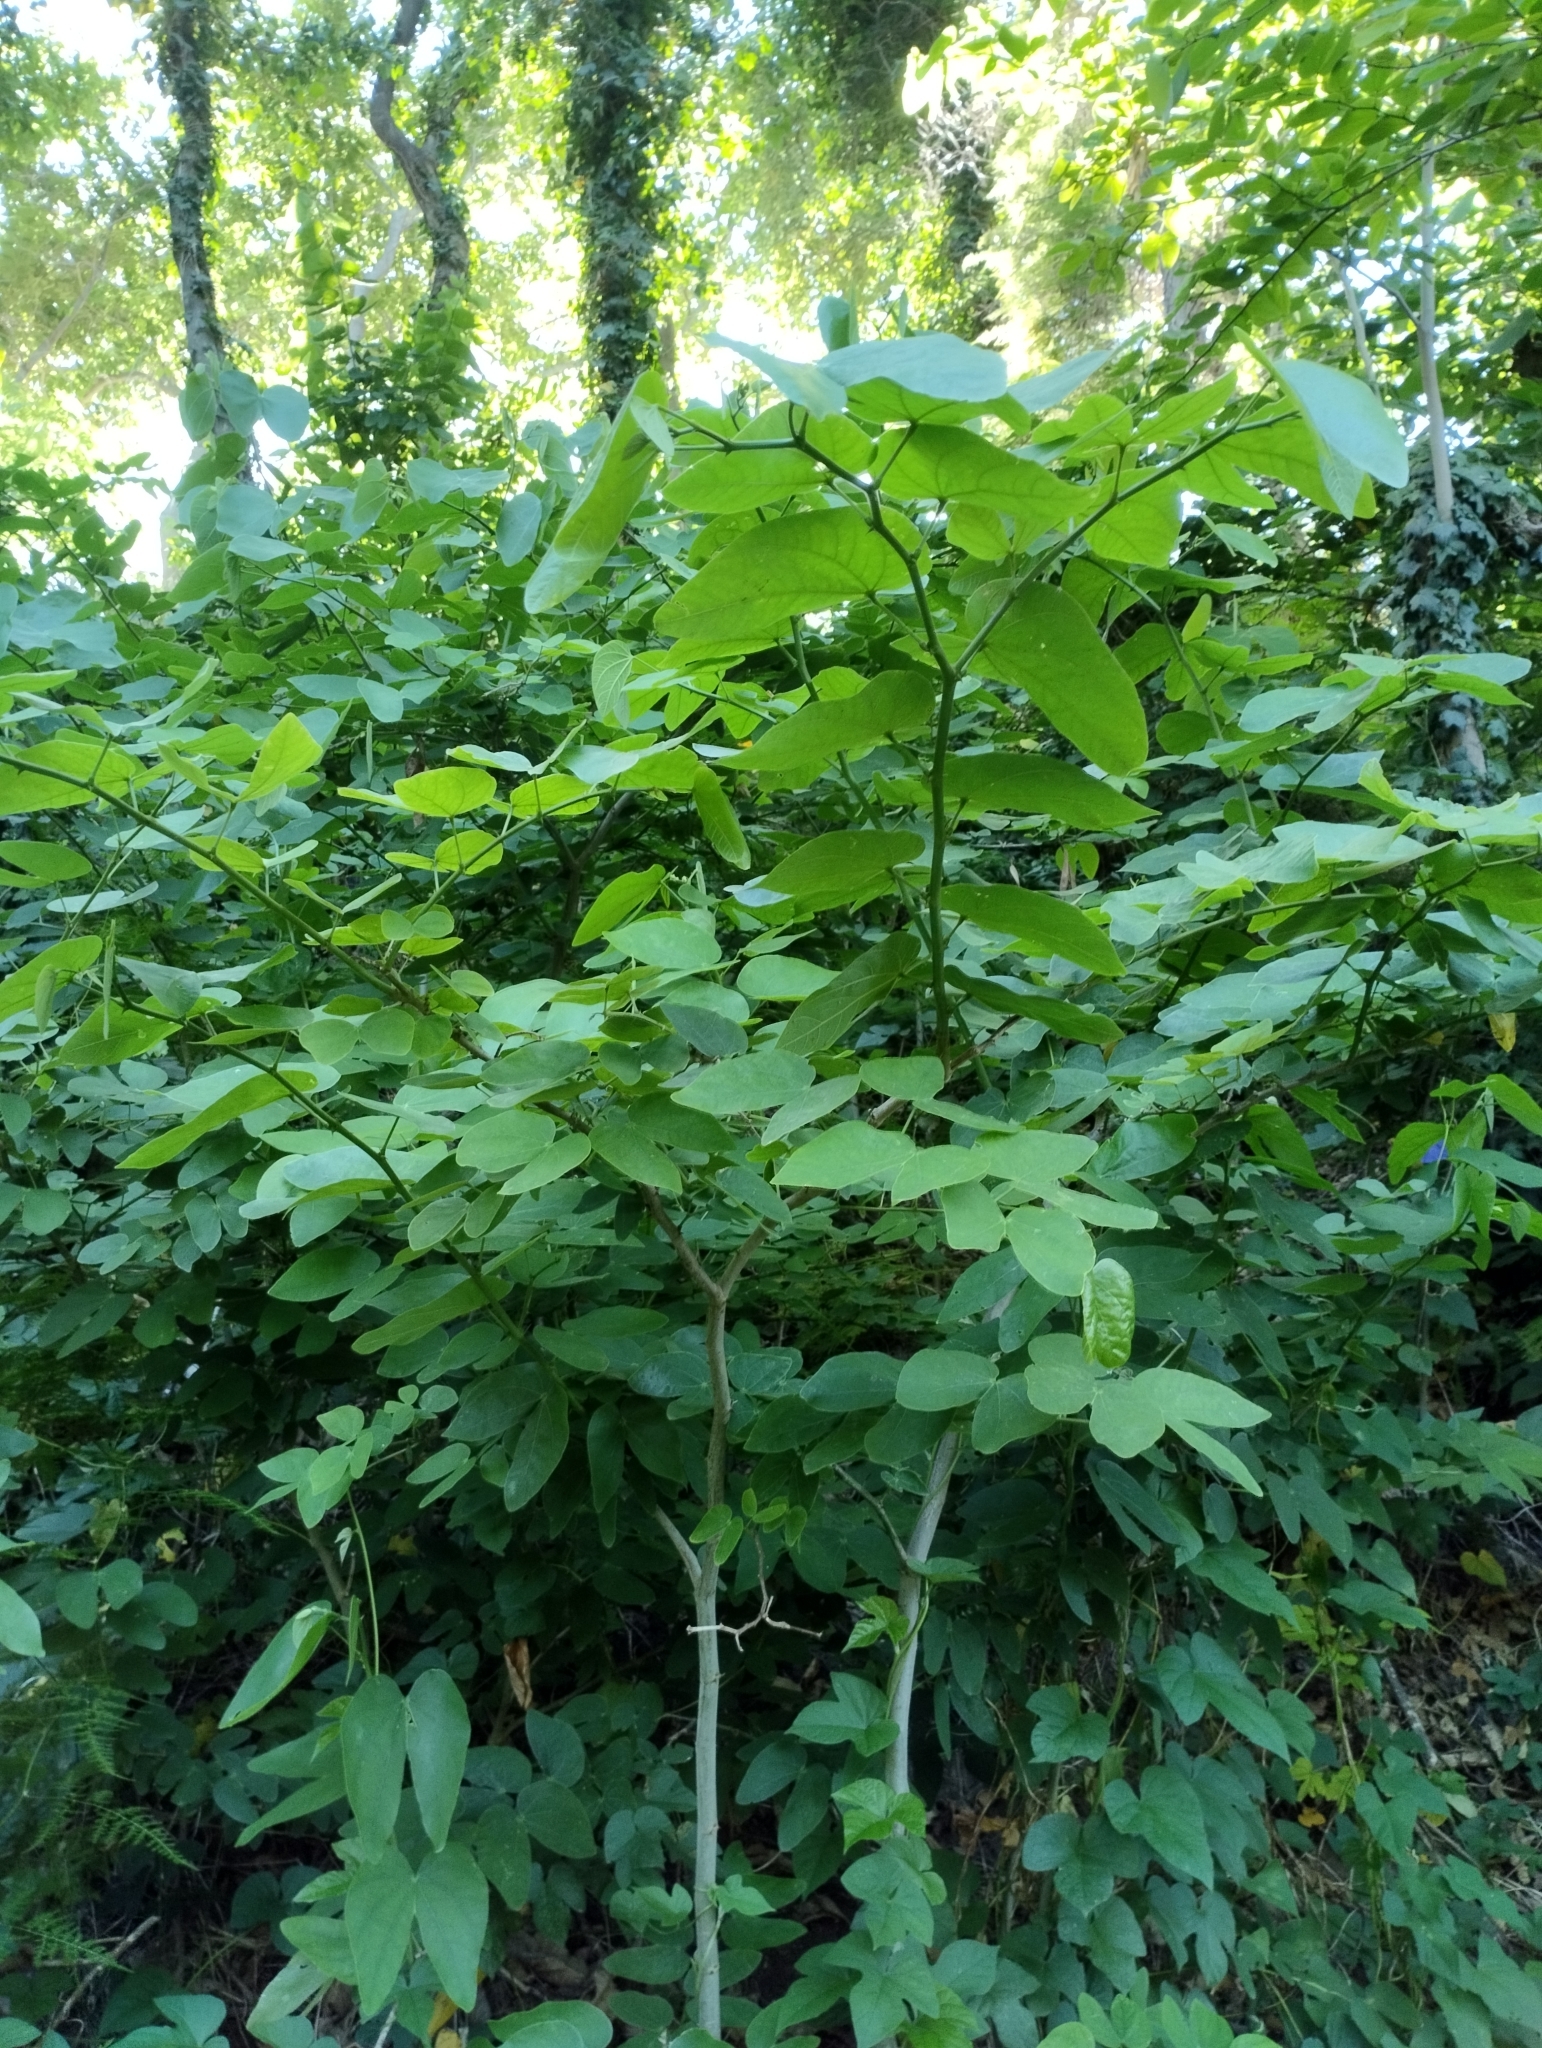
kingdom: Plantae
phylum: Tracheophyta
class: Magnoliopsida
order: Fabales
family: Fabaceae
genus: Bauhinia
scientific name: Bauhinia forficata
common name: Orchid tree
